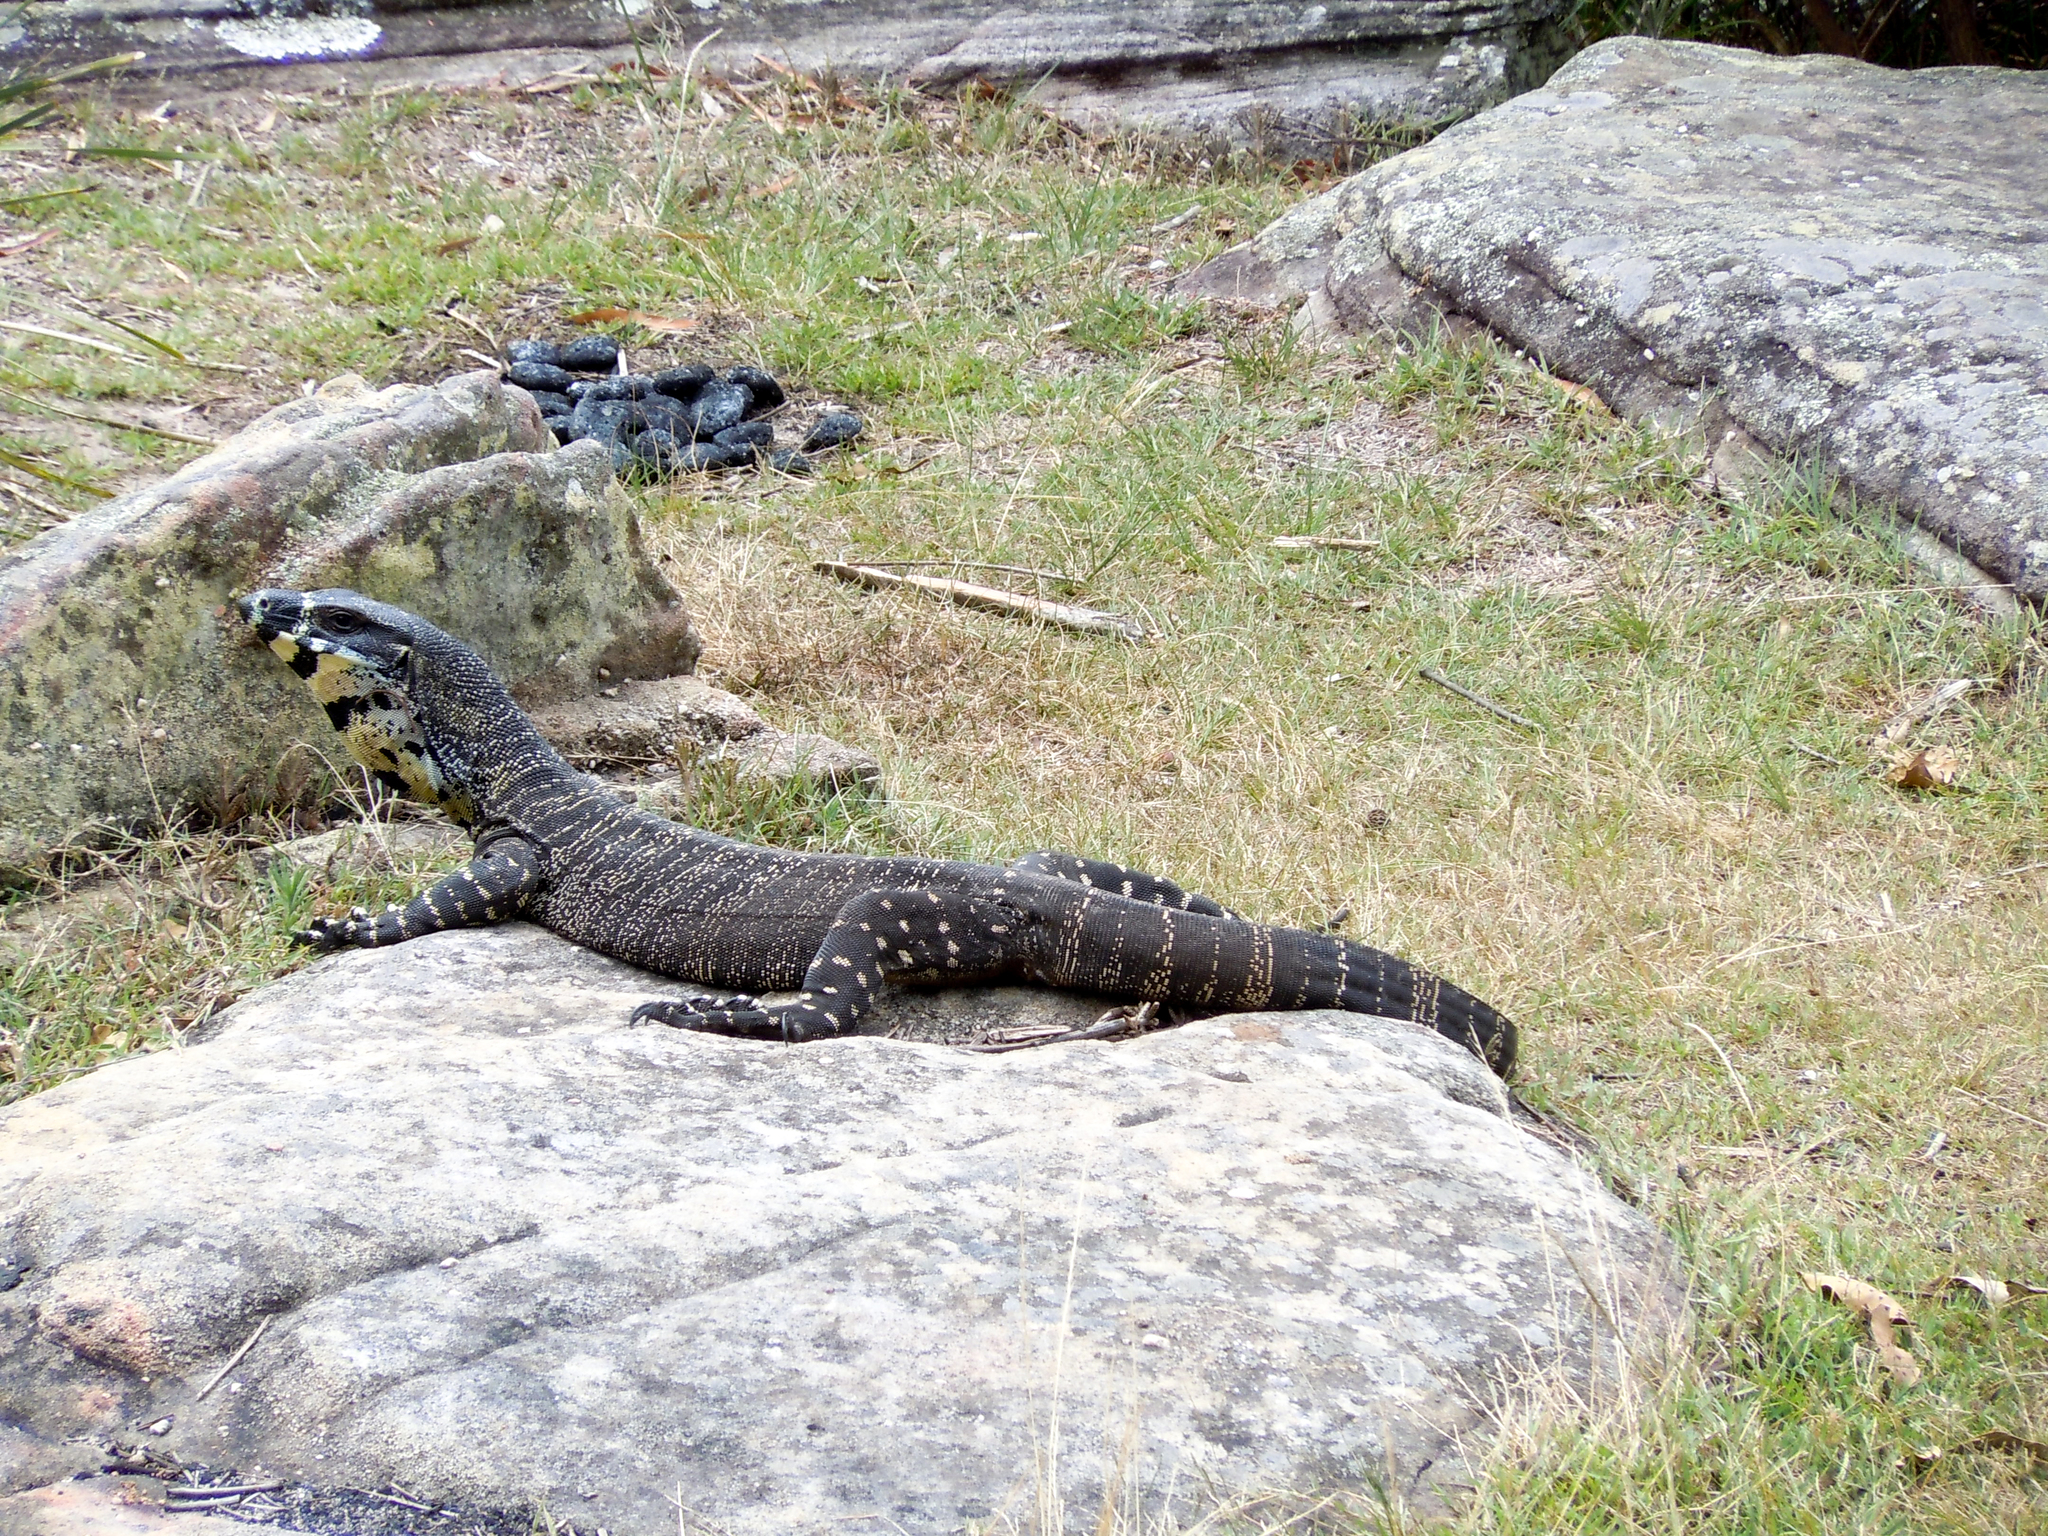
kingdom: Animalia
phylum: Chordata
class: Squamata
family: Varanidae
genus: Varanus
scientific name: Varanus varius
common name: Lace monitor
